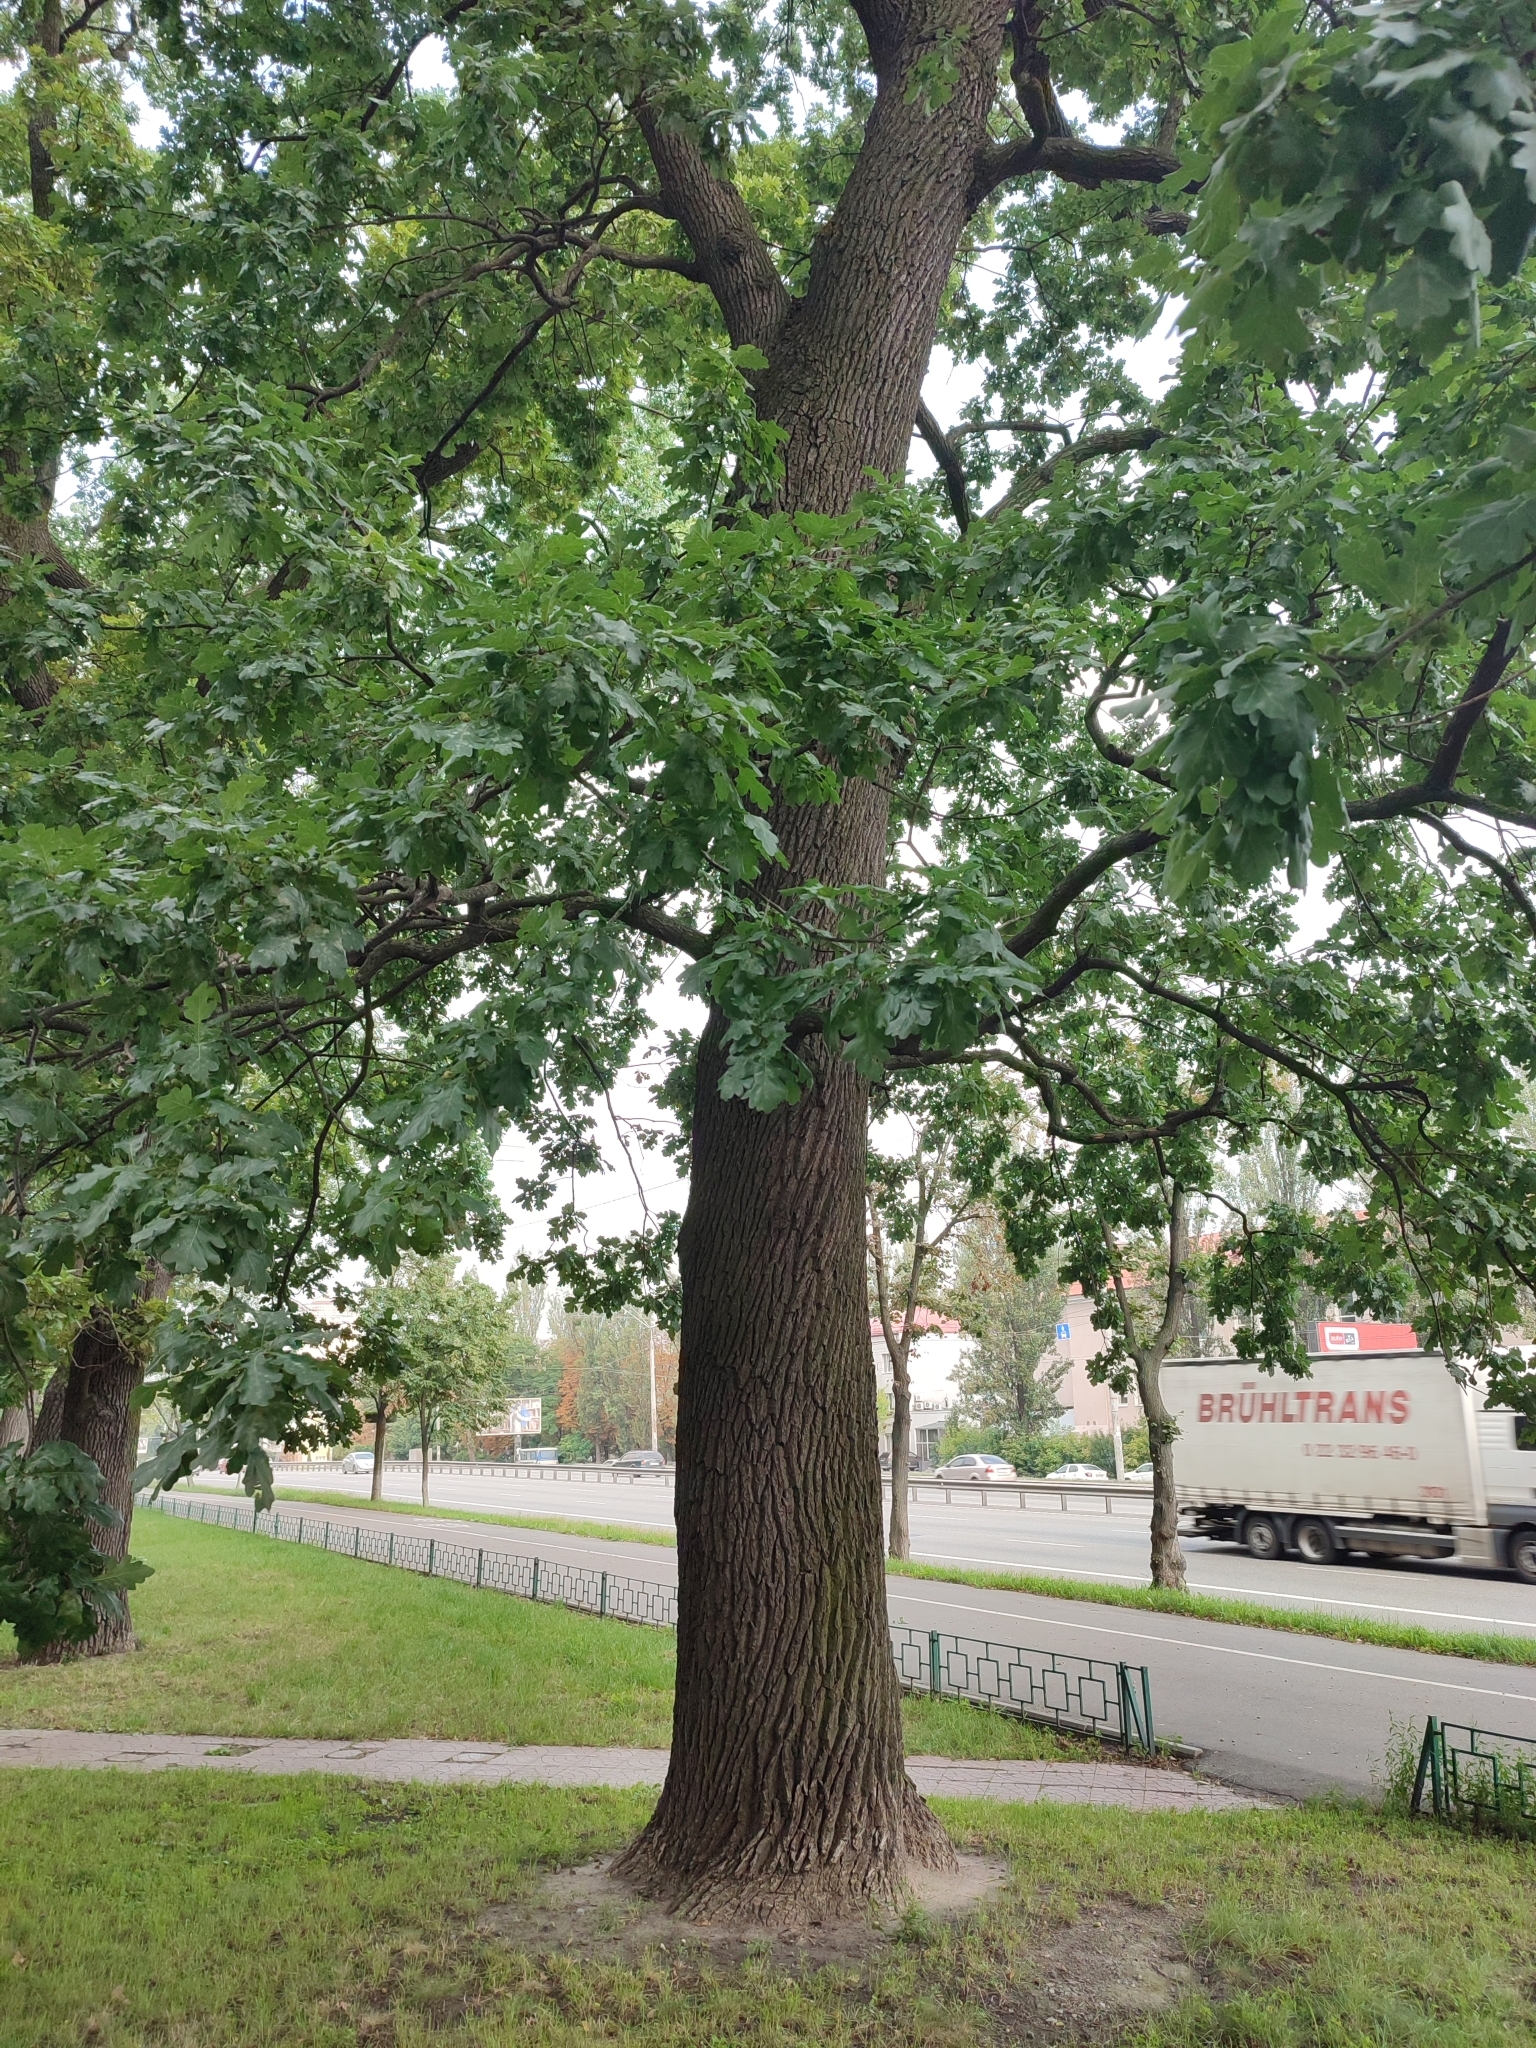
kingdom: Plantae
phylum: Tracheophyta
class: Magnoliopsida
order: Fagales
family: Fagaceae
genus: Quercus
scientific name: Quercus robur
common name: Pedunculate oak
